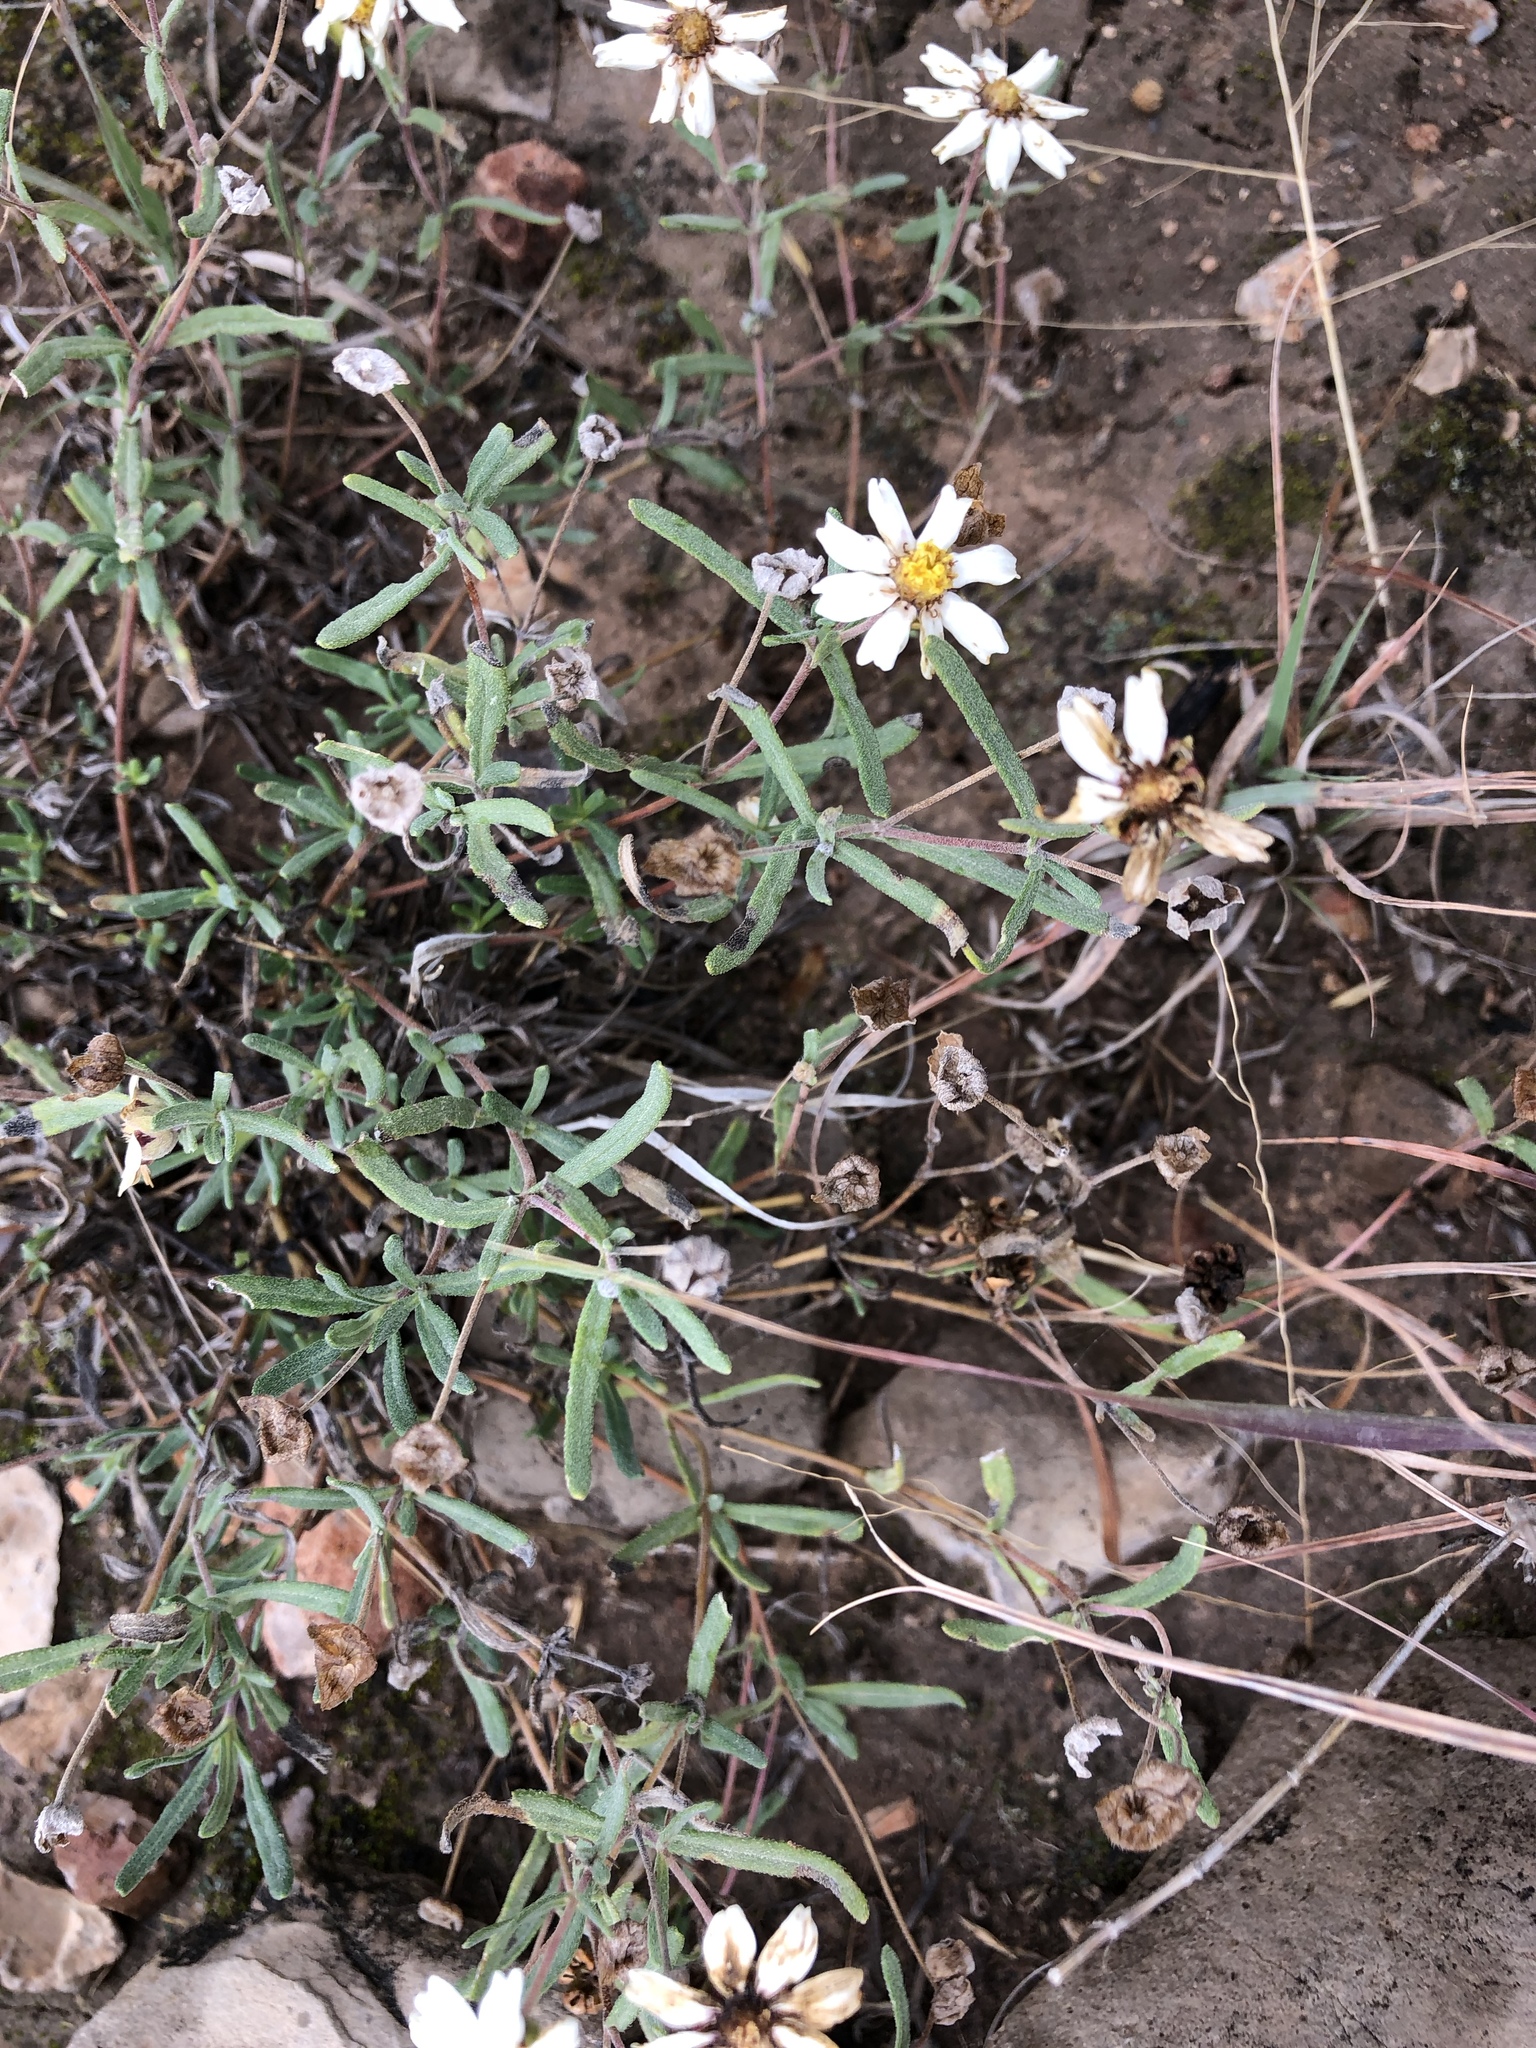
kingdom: Plantae
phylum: Tracheophyta
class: Magnoliopsida
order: Asterales
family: Asteraceae
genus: Melampodium
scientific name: Melampodium leucanthum
